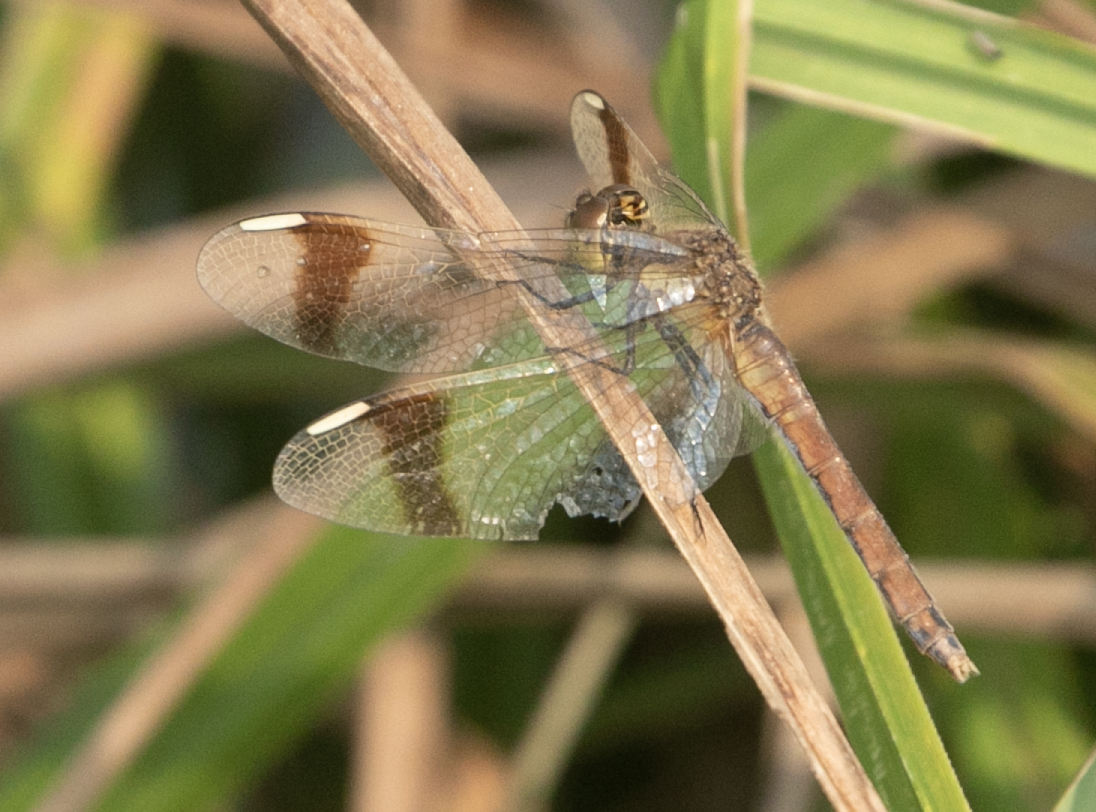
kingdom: Animalia
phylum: Arthropoda
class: Insecta
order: Odonata
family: Libellulidae
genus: Sympetrum
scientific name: Sympetrum pedemontanum
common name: Banded darter
